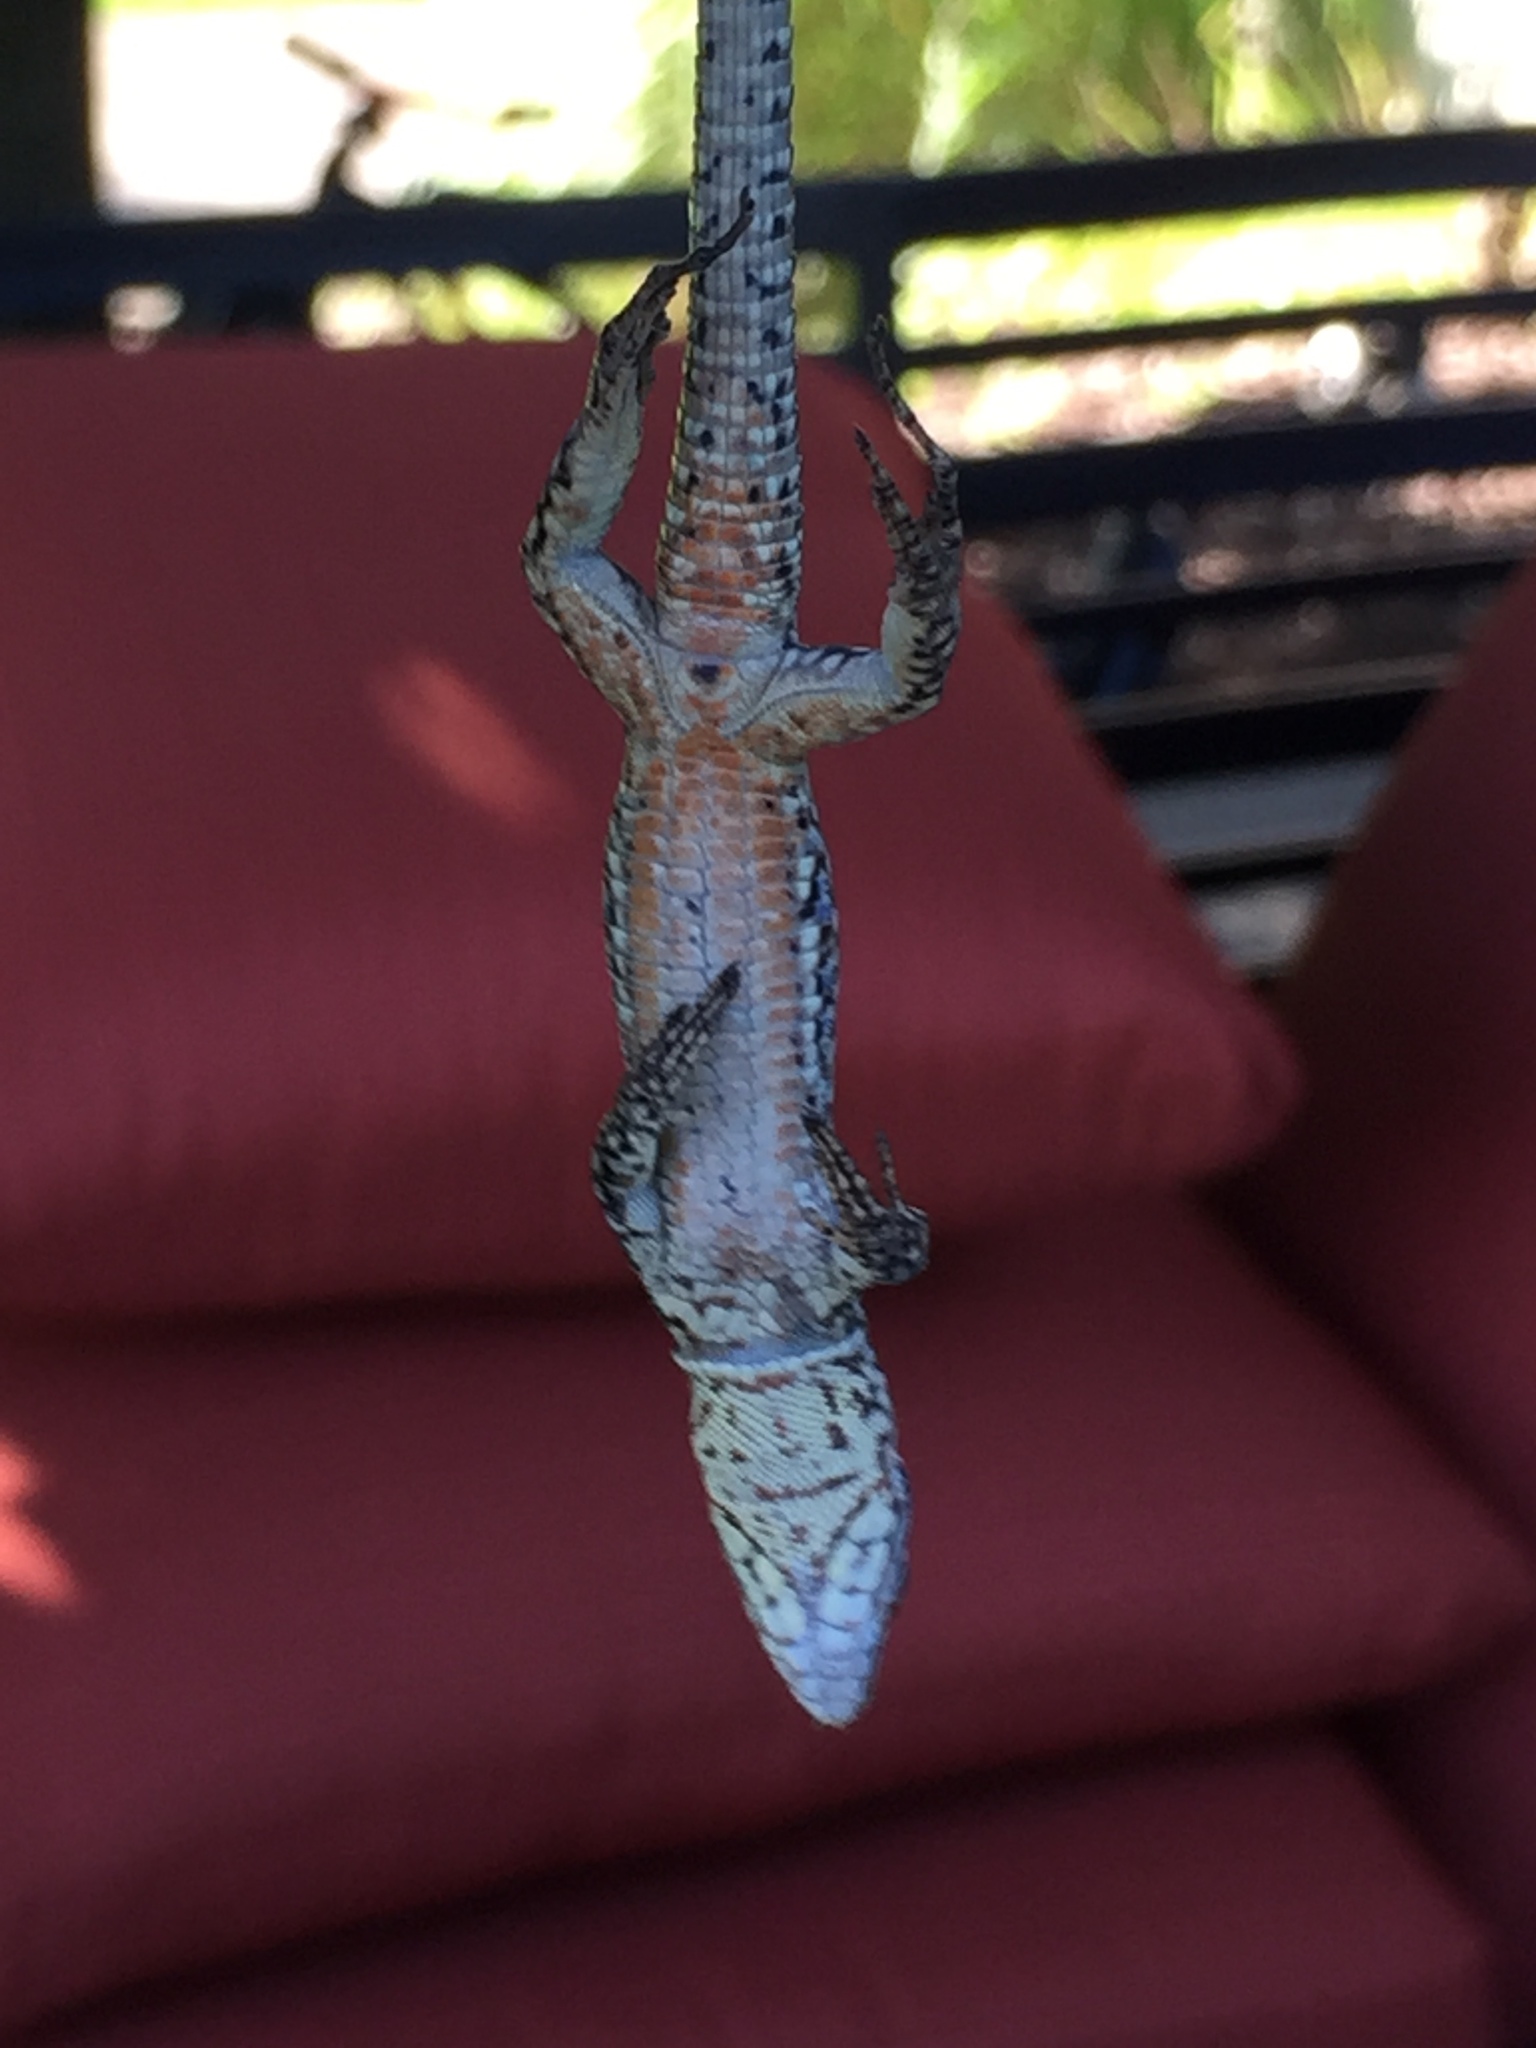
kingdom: Animalia
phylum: Chordata
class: Squamata
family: Lacertidae
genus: Podarcis
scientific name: Podarcis muralis
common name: Common wall lizard
